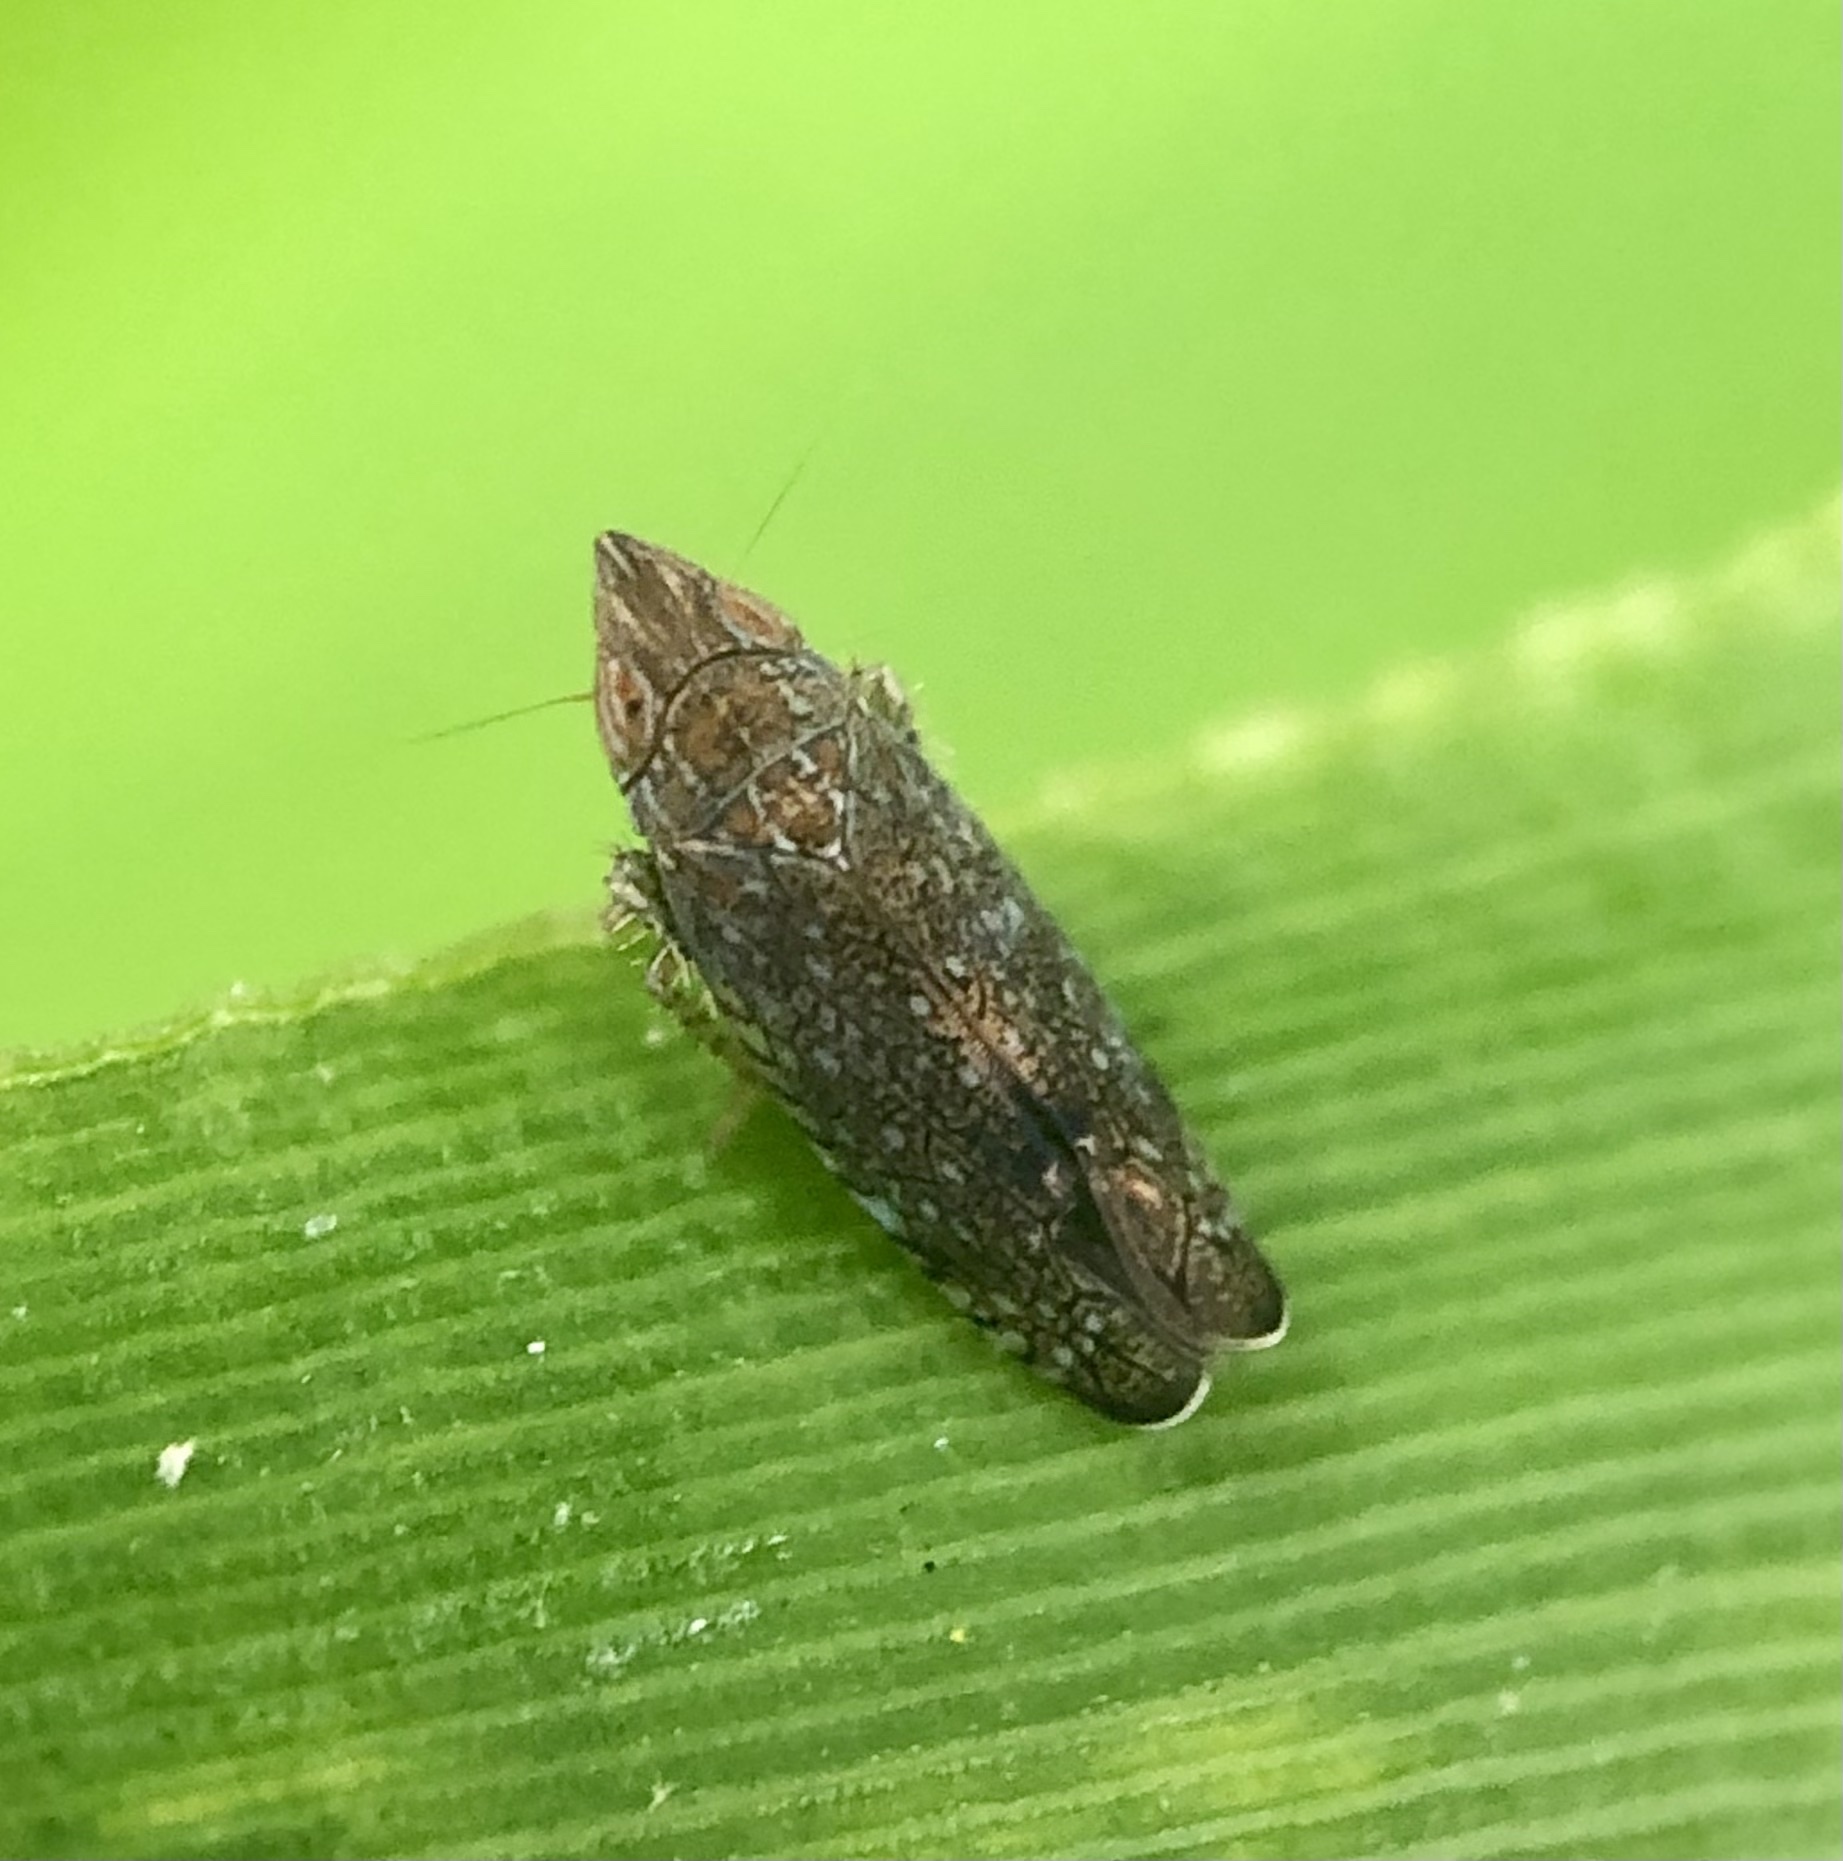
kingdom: Animalia
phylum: Arthropoda
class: Insecta
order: Hemiptera
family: Cicadellidae
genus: Scaphytopius
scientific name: Scaphytopius acutus
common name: The sharp-nosed leafhopper
